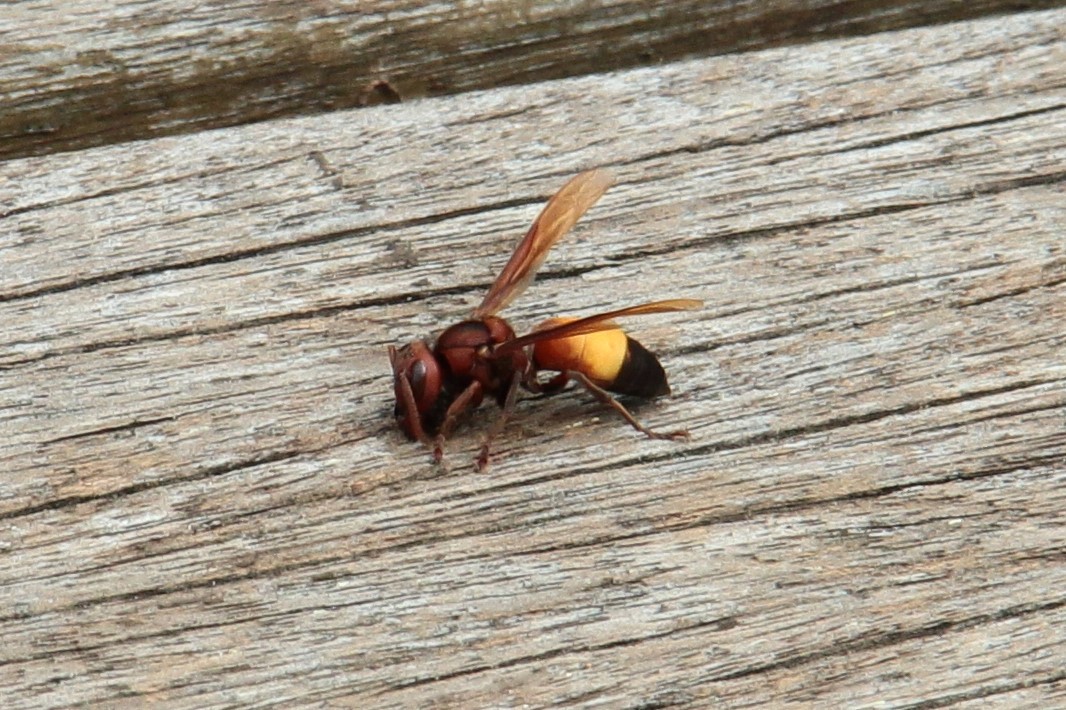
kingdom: Animalia
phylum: Arthropoda
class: Insecta
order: Hymenoptera
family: Vespidae
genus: Vespa
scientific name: Vespa affinis
